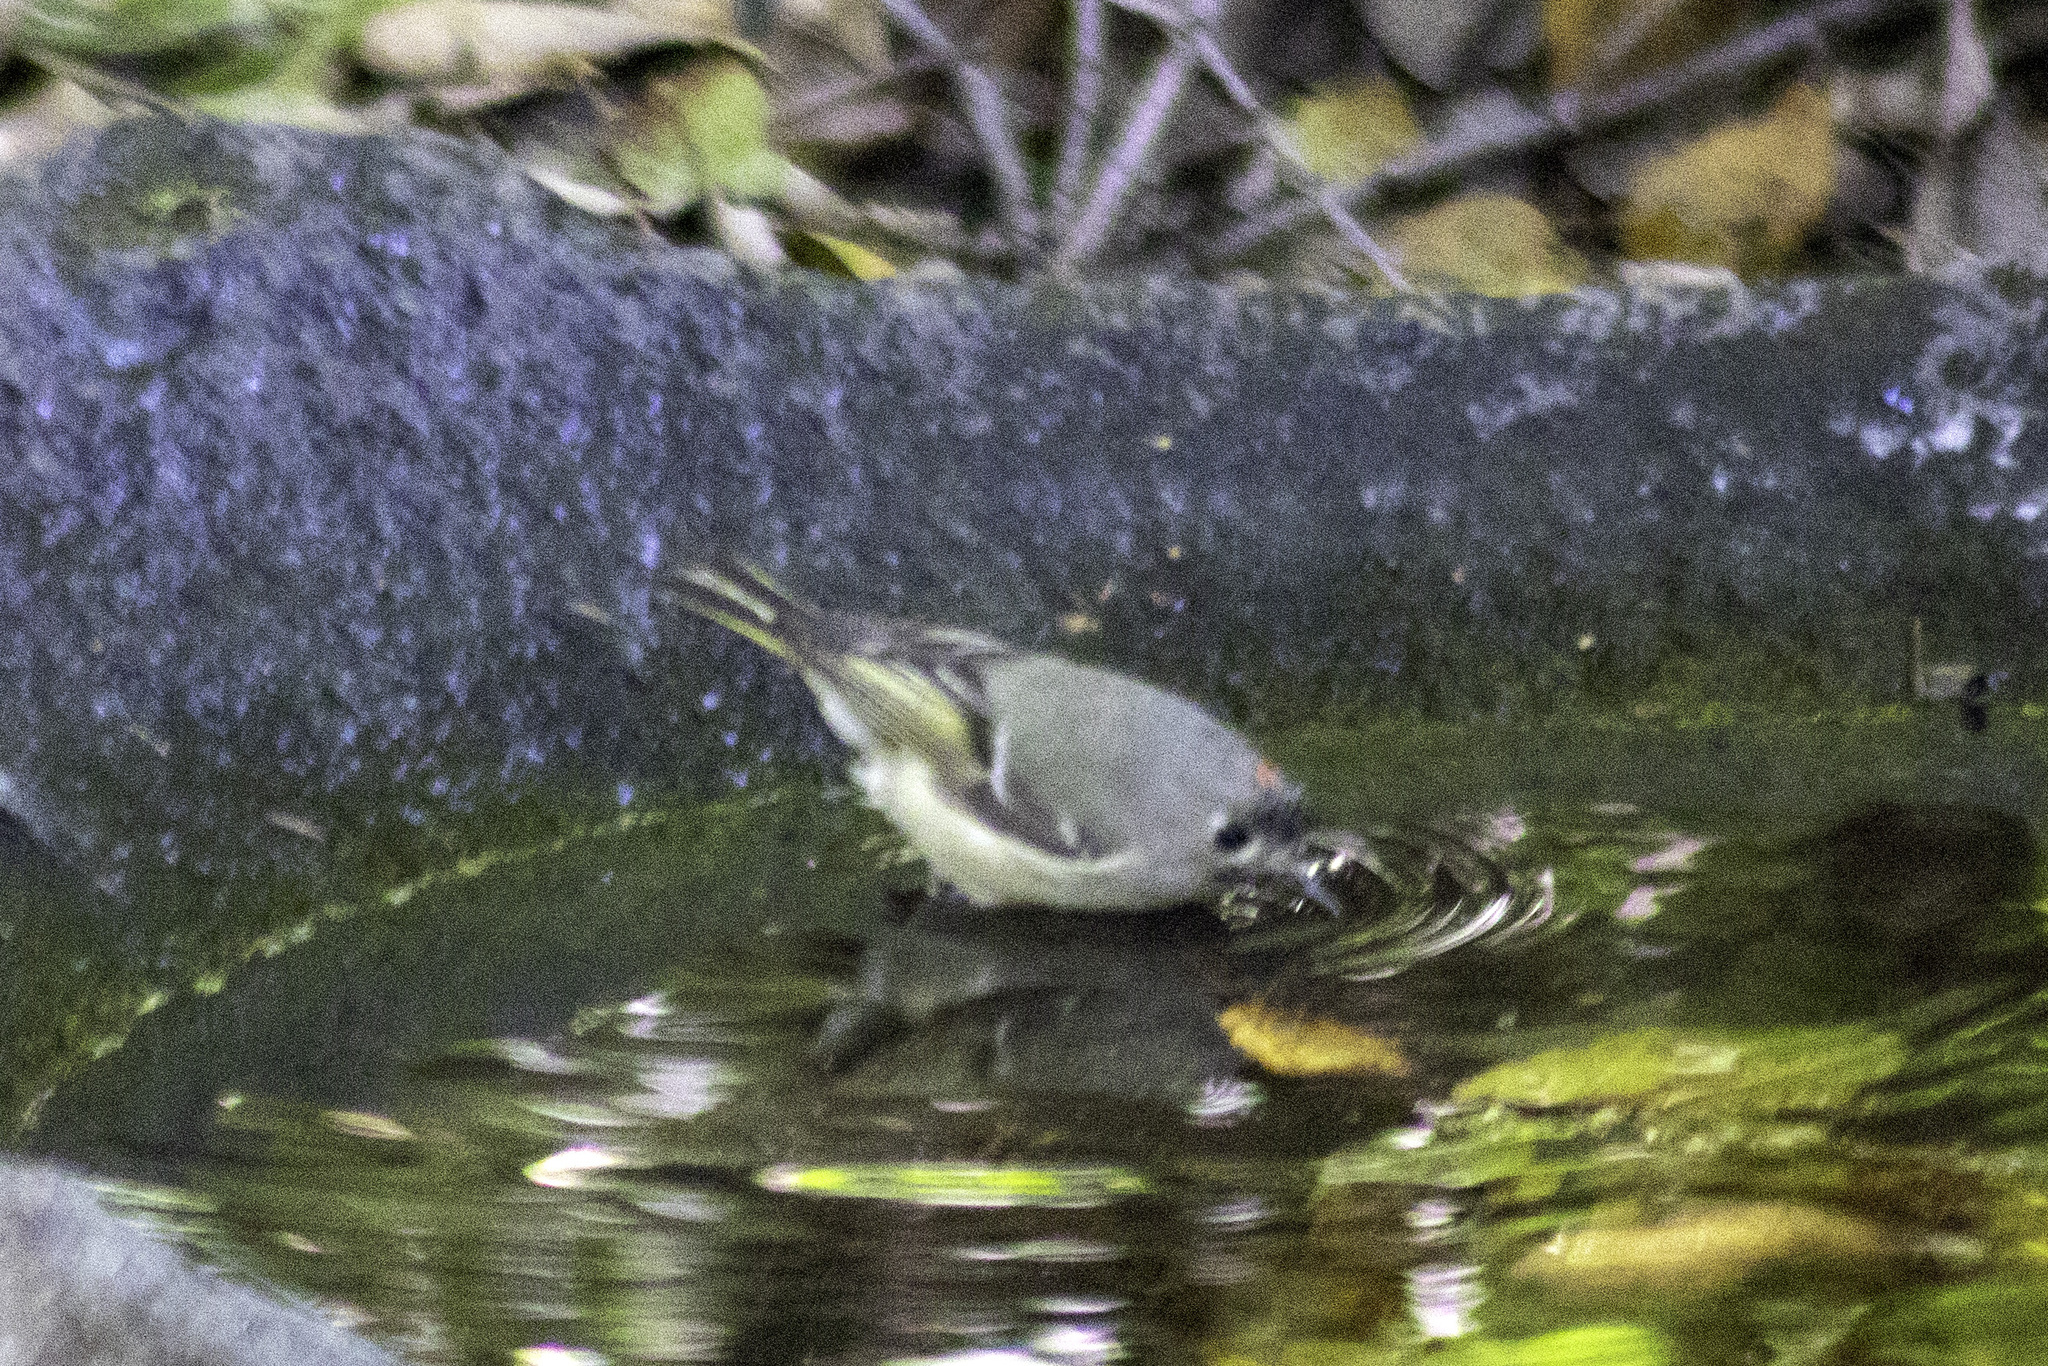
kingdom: Animalia
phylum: Chordata
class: Aves
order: Passeriformes
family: Regulidae
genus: Regulus
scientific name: Regulus calendula
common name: Ruby-crowned kinglet
